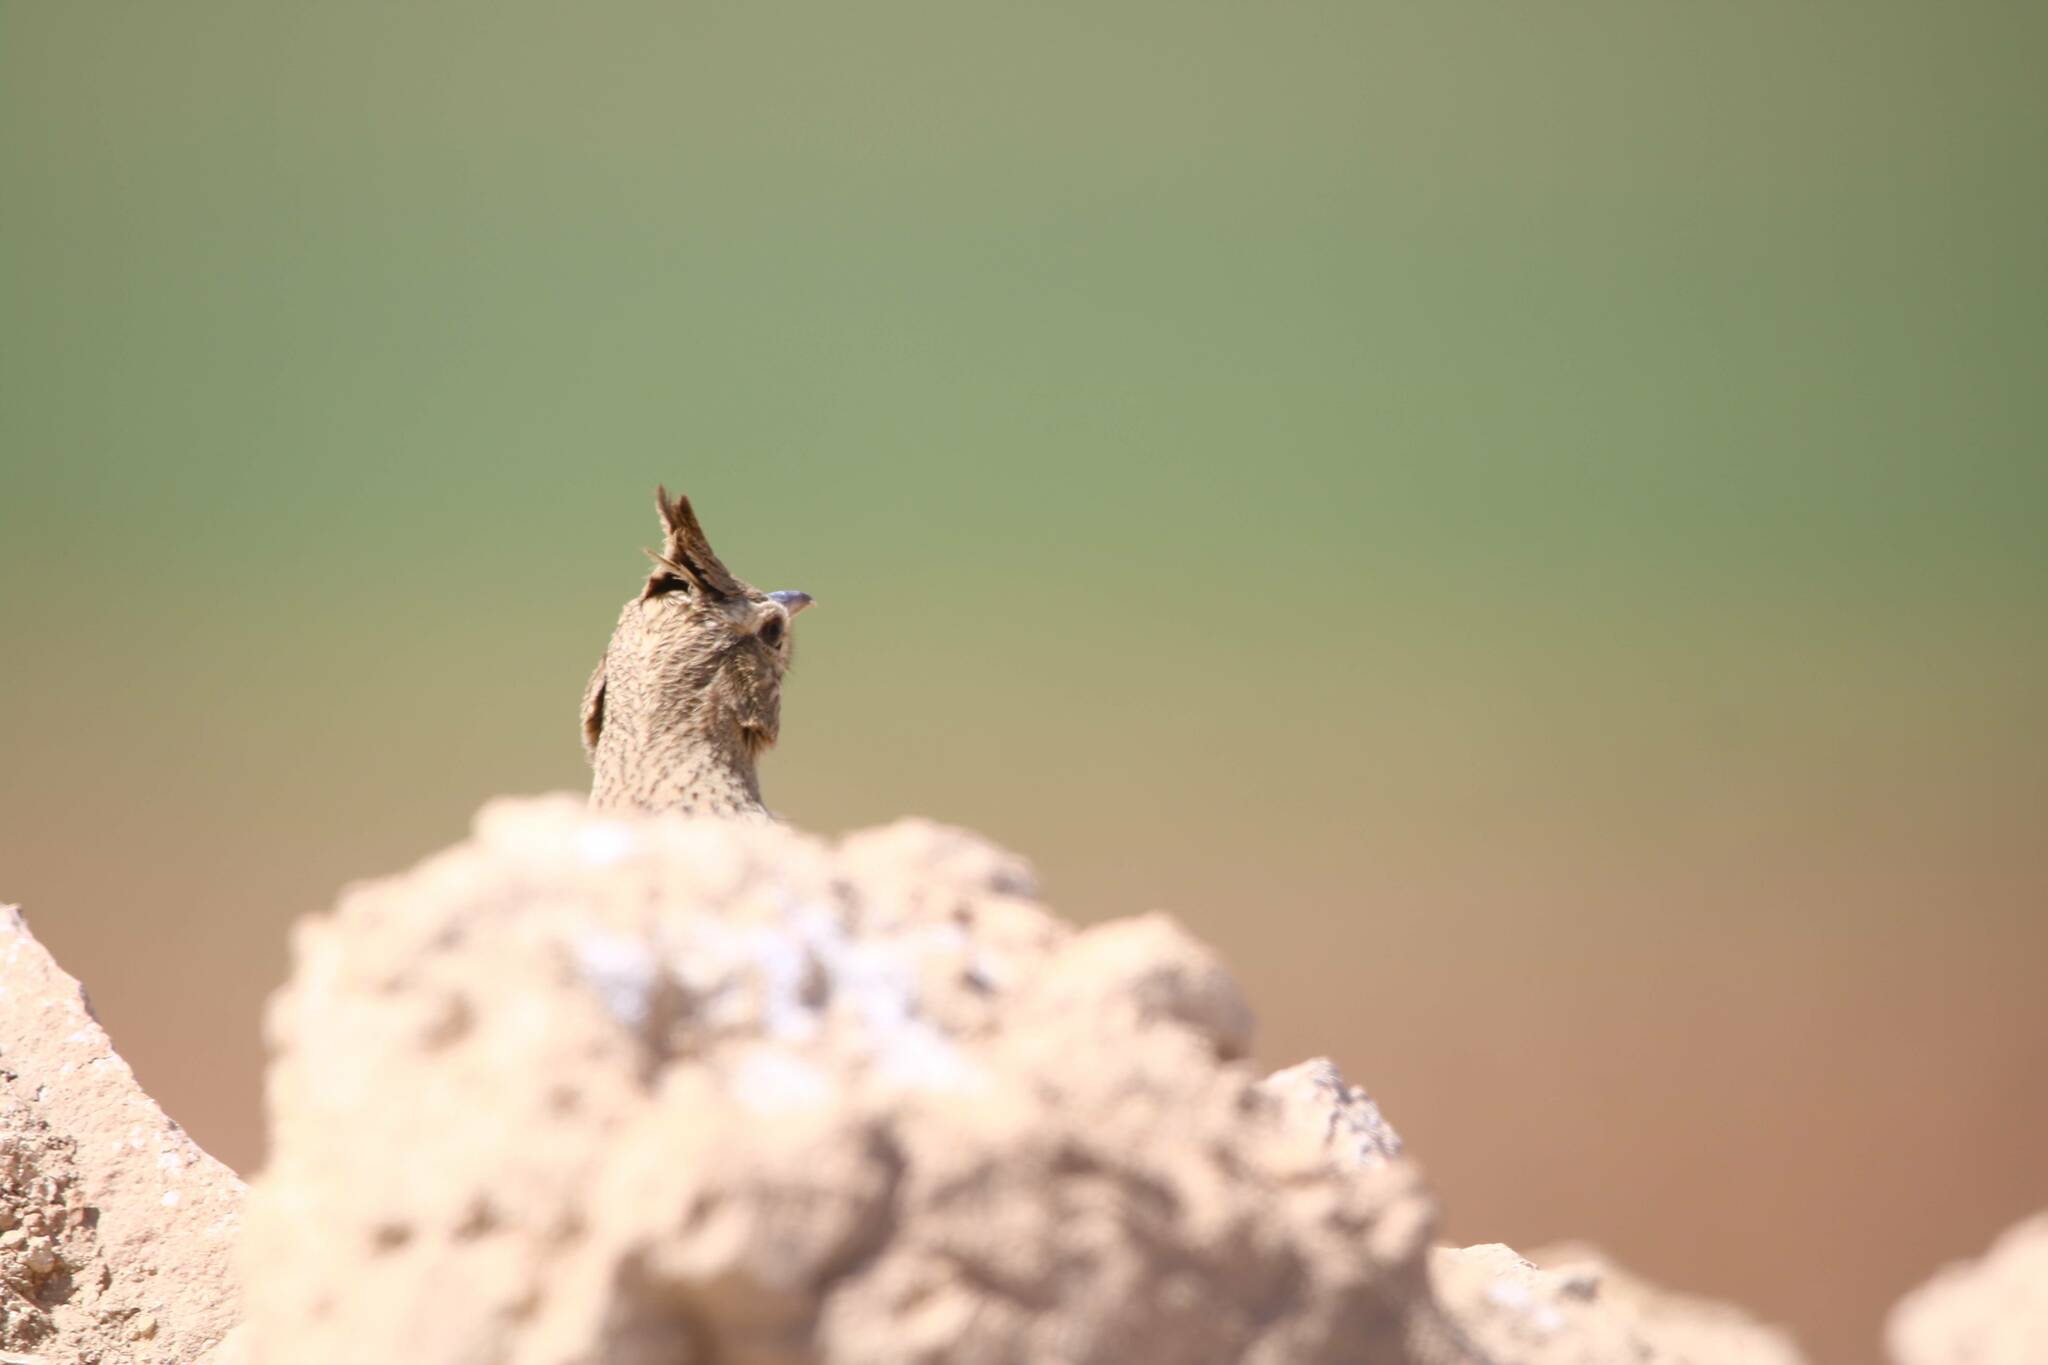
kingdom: Animalia
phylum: Chordata
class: Aves
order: Passeriformes
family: Alaudidae
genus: Galerida
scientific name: Galerida cristata
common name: Crested lark
